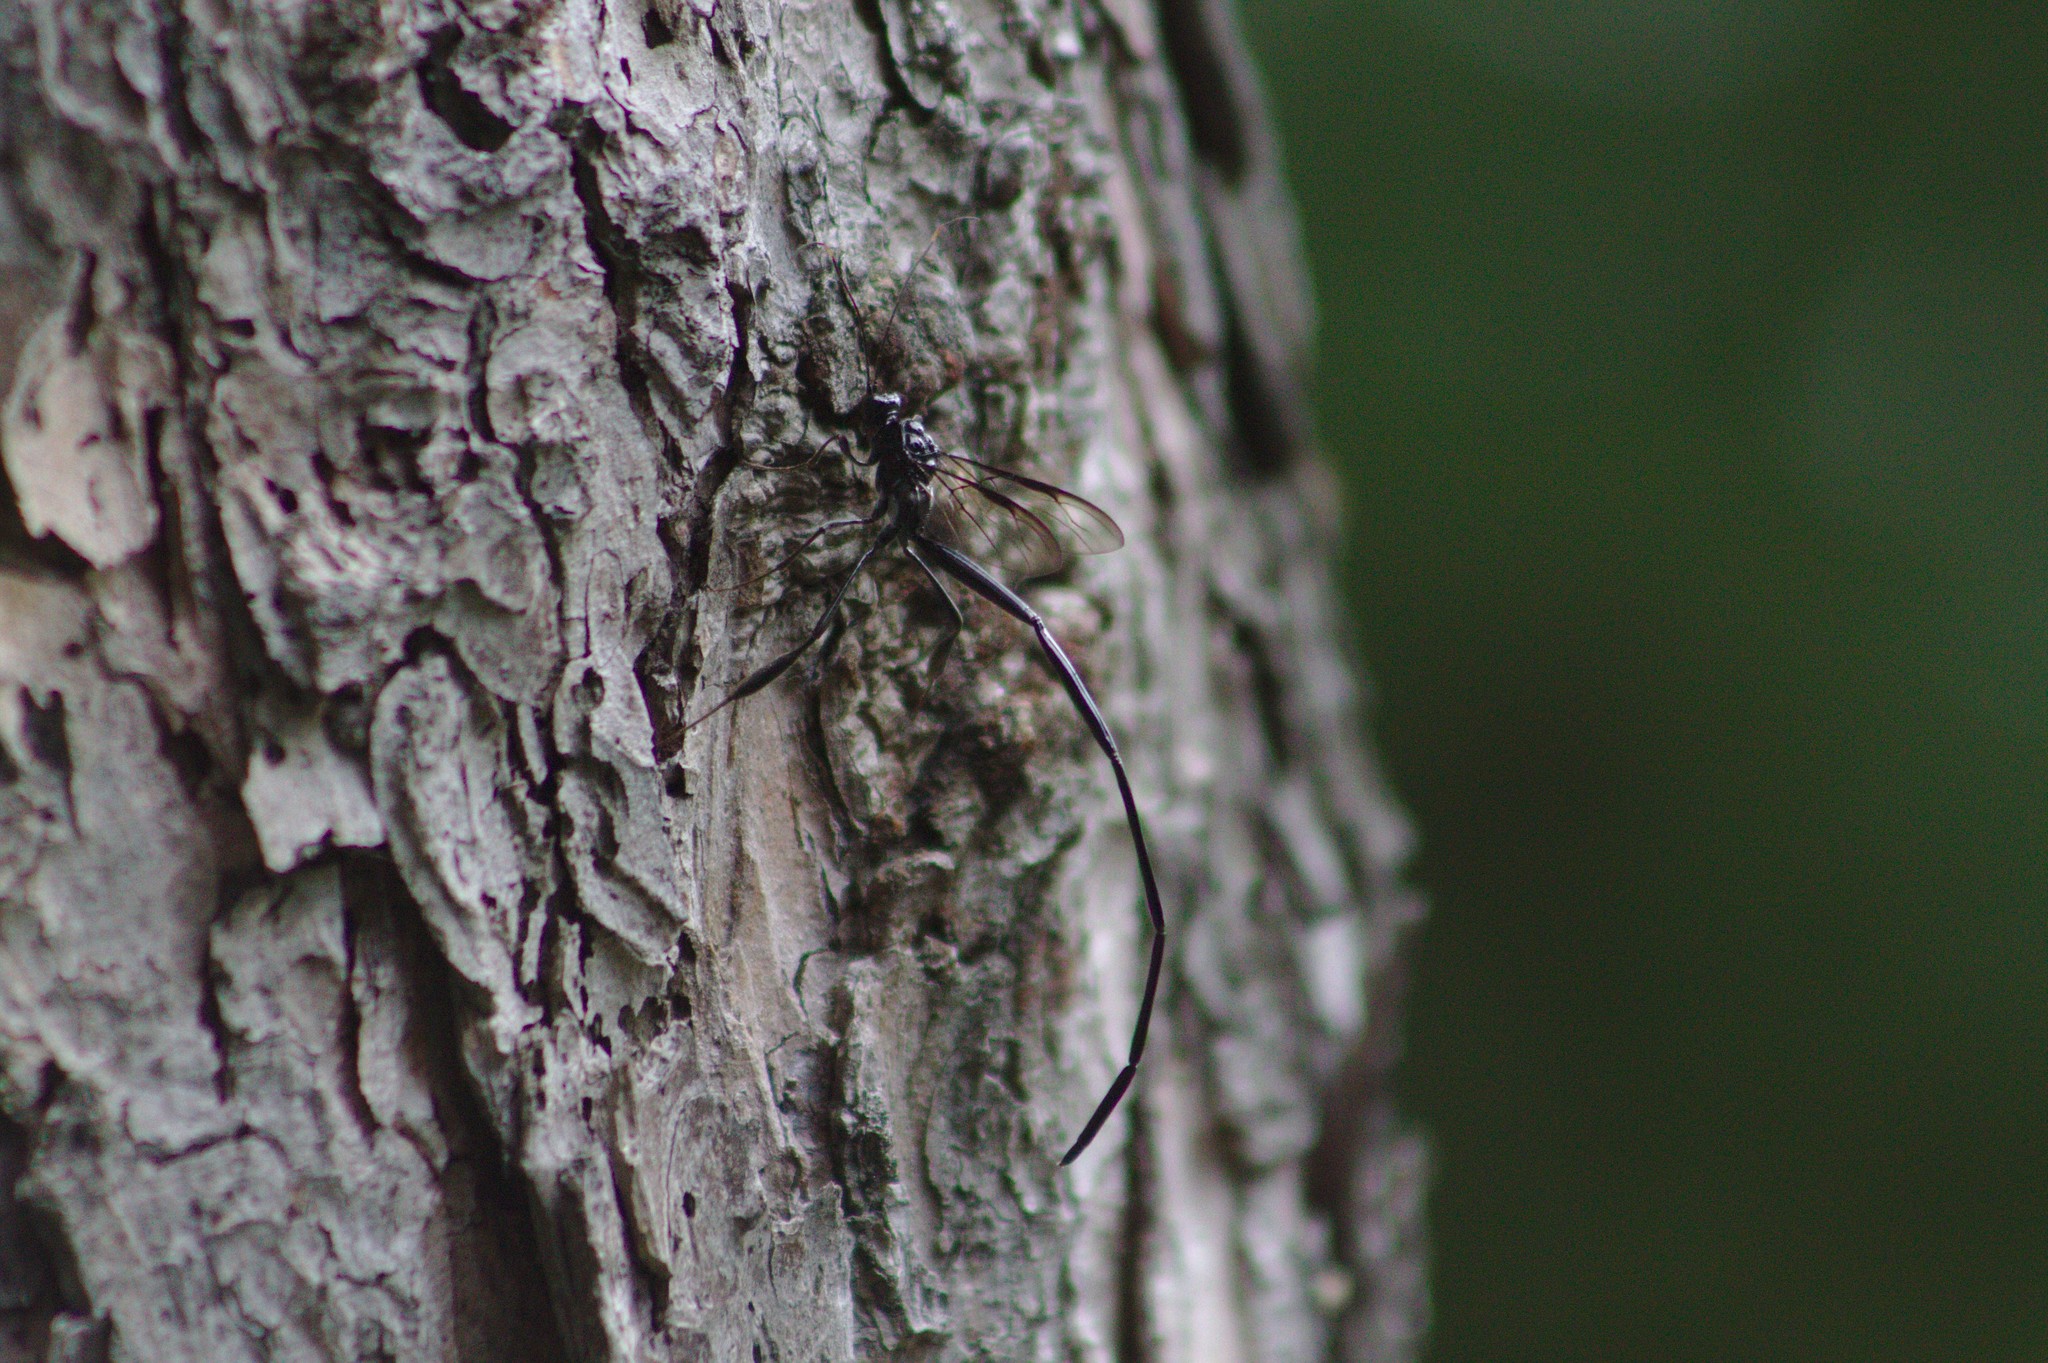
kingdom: Animalia
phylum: Arthropoda
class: Insecta
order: Hymenoptera
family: Pelecinidae
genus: Pelecinus
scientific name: Pelecinus polyturator
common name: American pelecinid wasp
